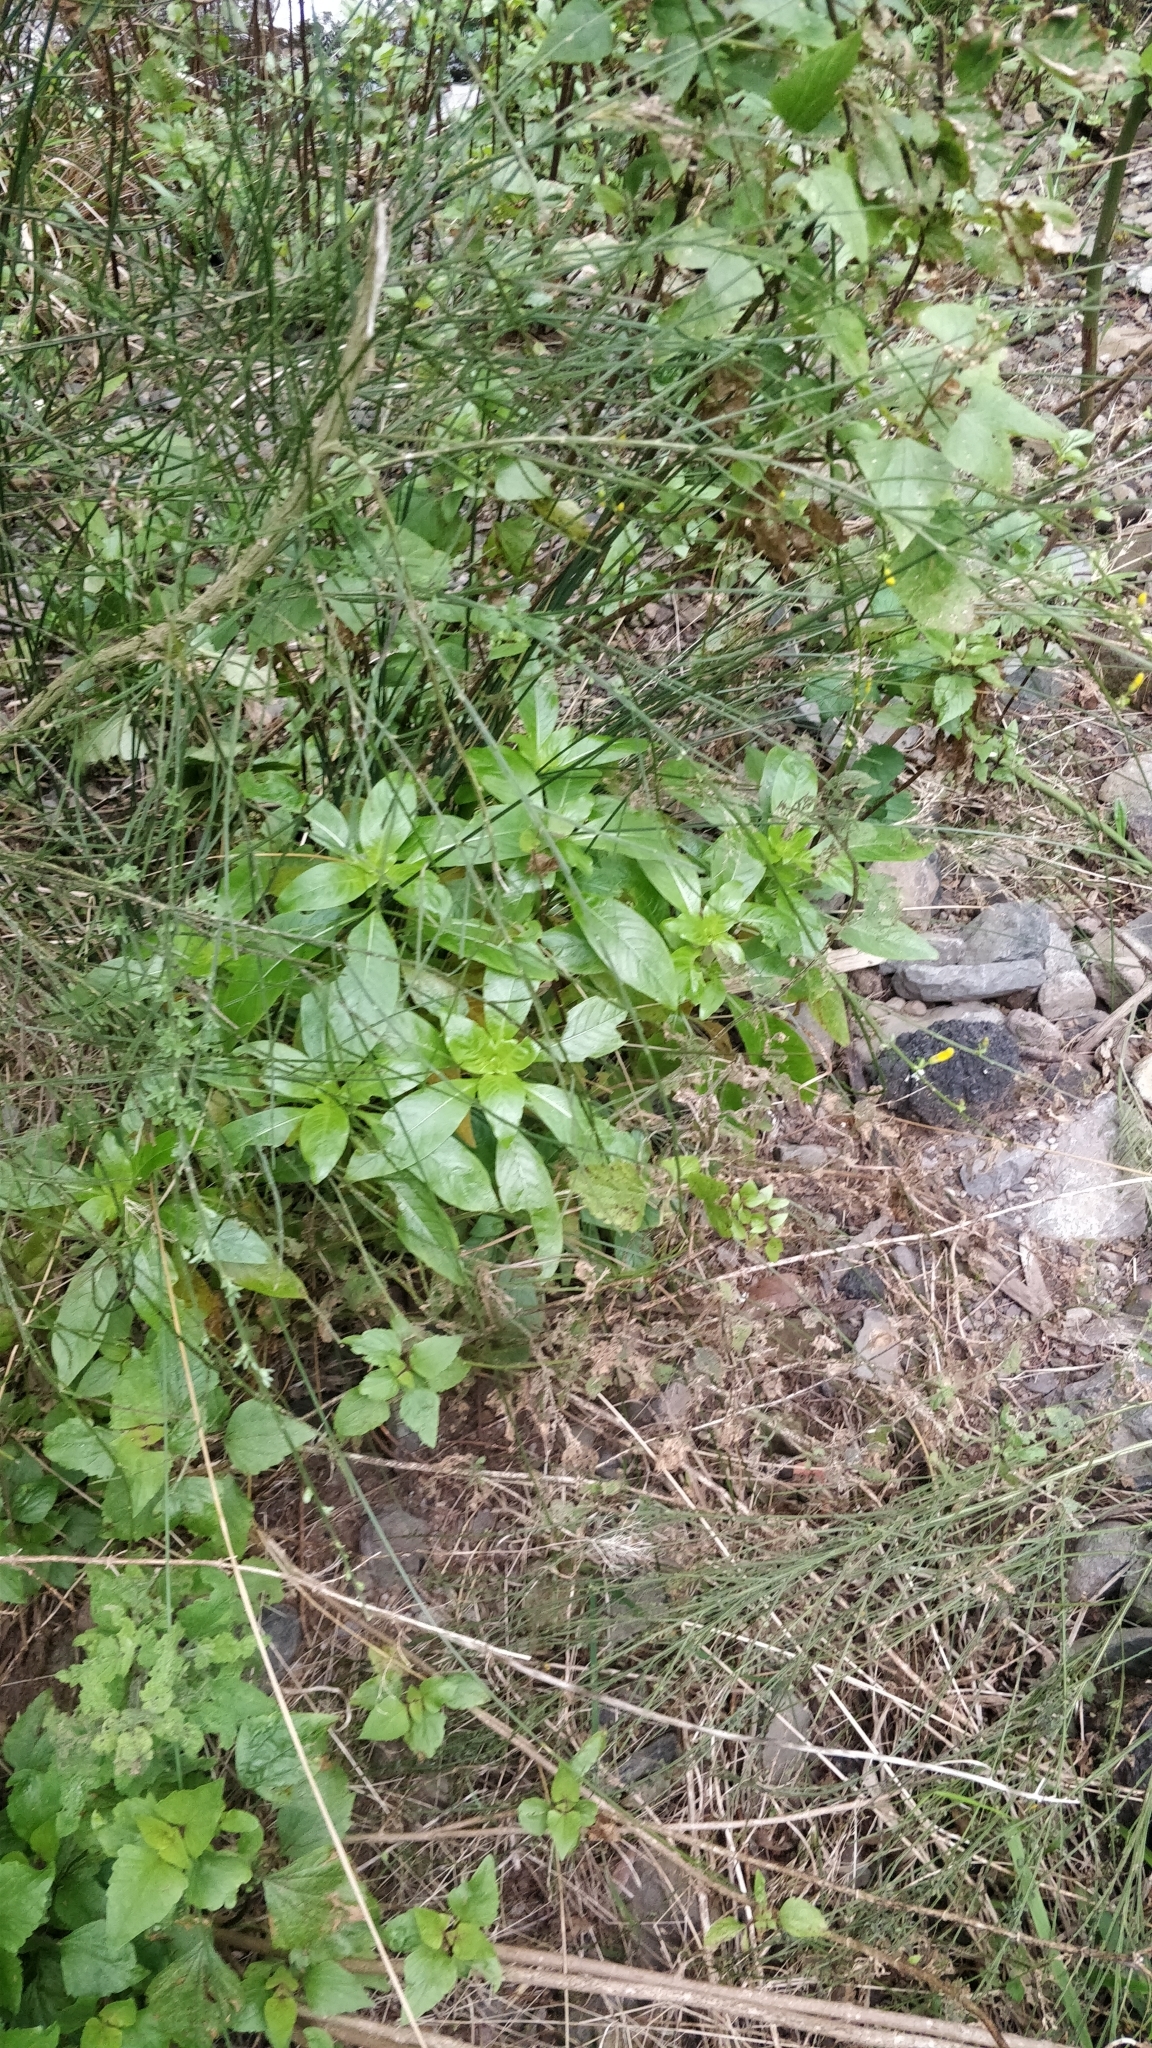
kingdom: Plantae
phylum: Tracheophyta
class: Magnoliopsida
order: Gentianales
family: Rubiaceae
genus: Phyllis
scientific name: Phyllis nobla
